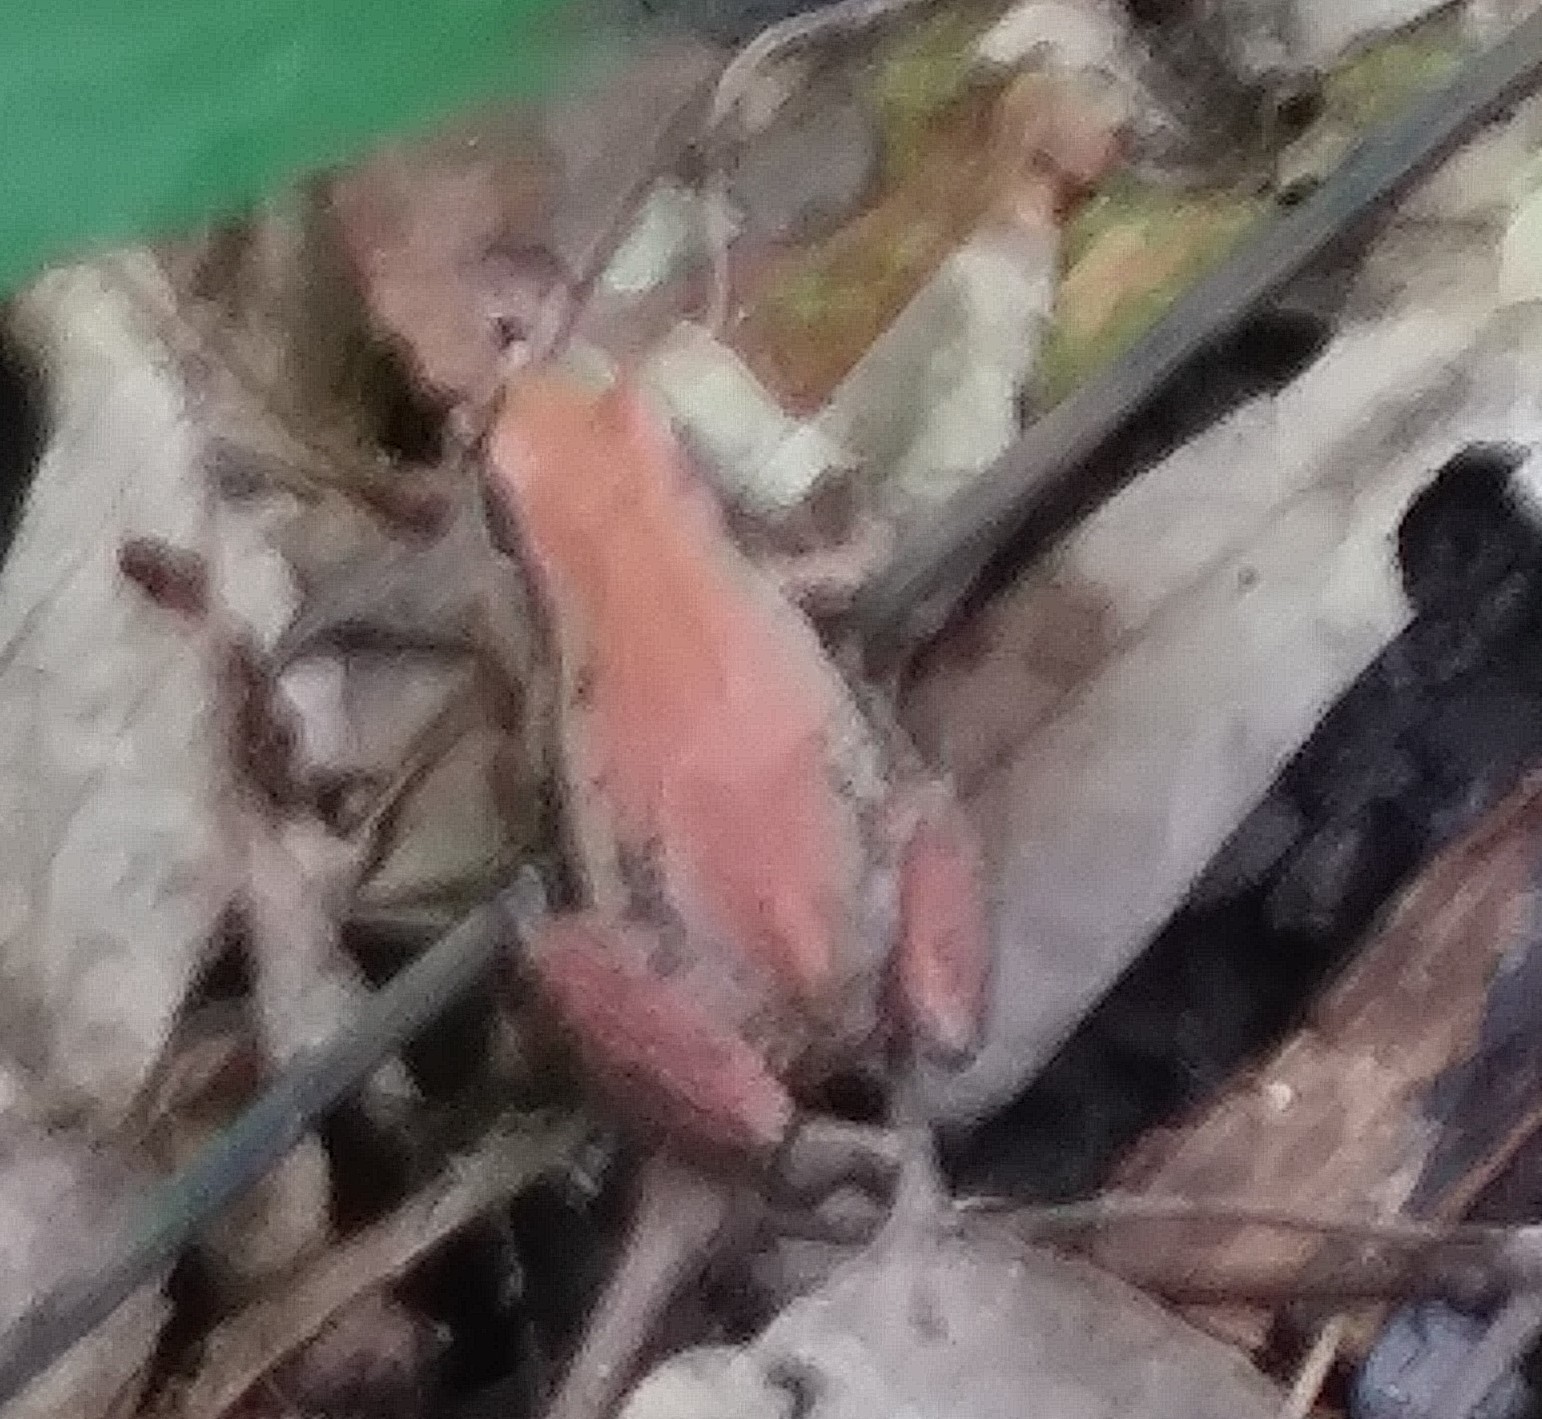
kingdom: Animalia
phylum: Chordata
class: Amphibia
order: Anura
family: Hylidae
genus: Pseudacris
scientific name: Pseudacris maculata
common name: Boreal chorus frog
